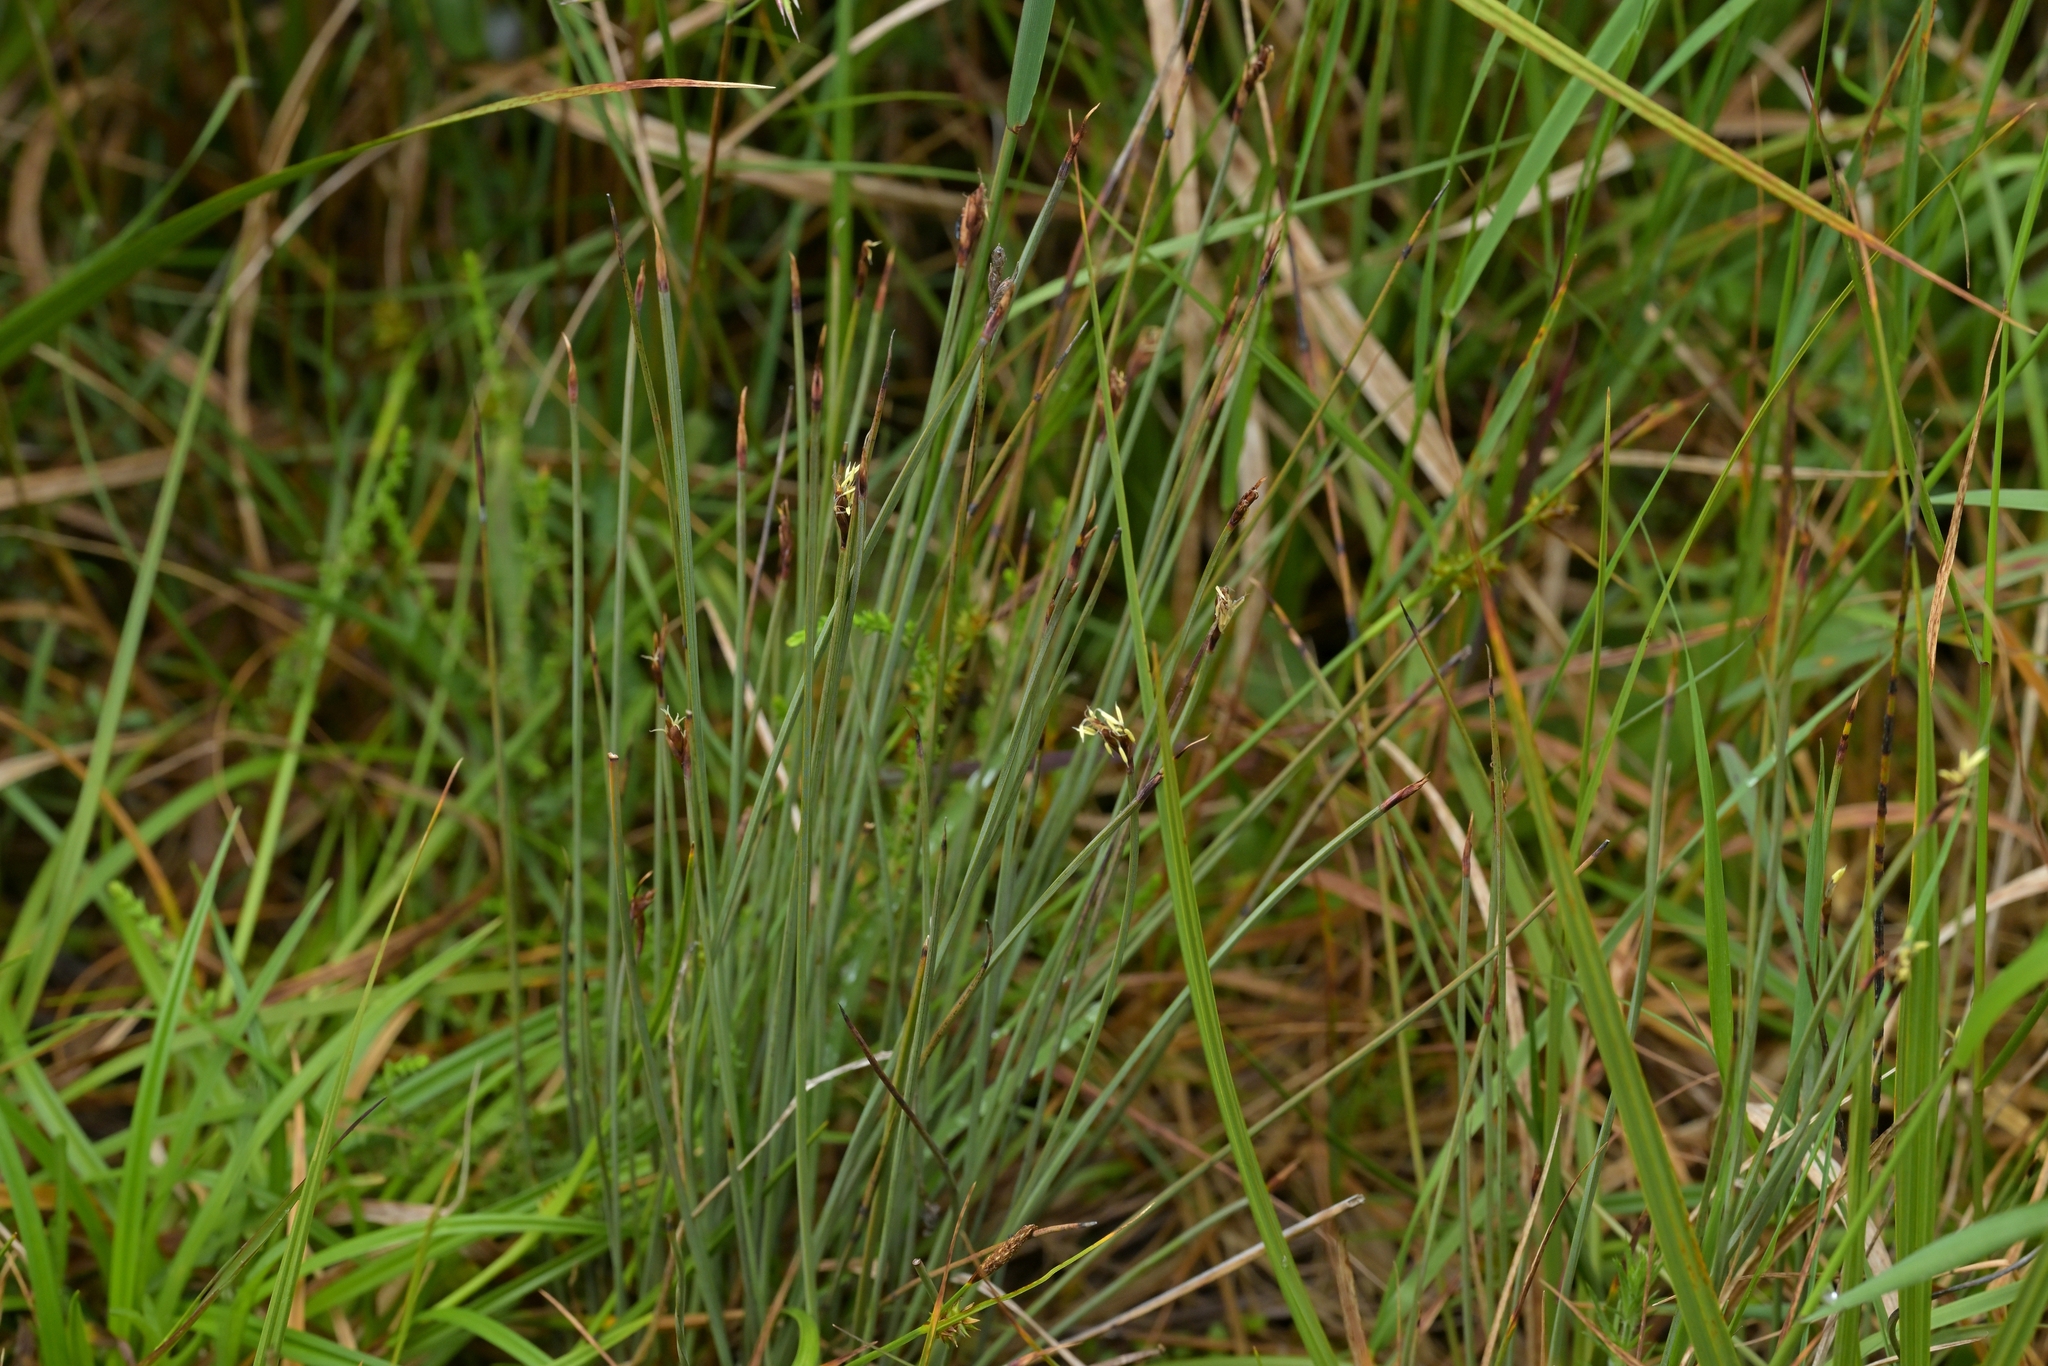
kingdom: Plantae
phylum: Tracheophyta
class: Liliopsida
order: Poales
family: Cyperaceae
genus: Lepidosperma
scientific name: Lepidosperma australe
